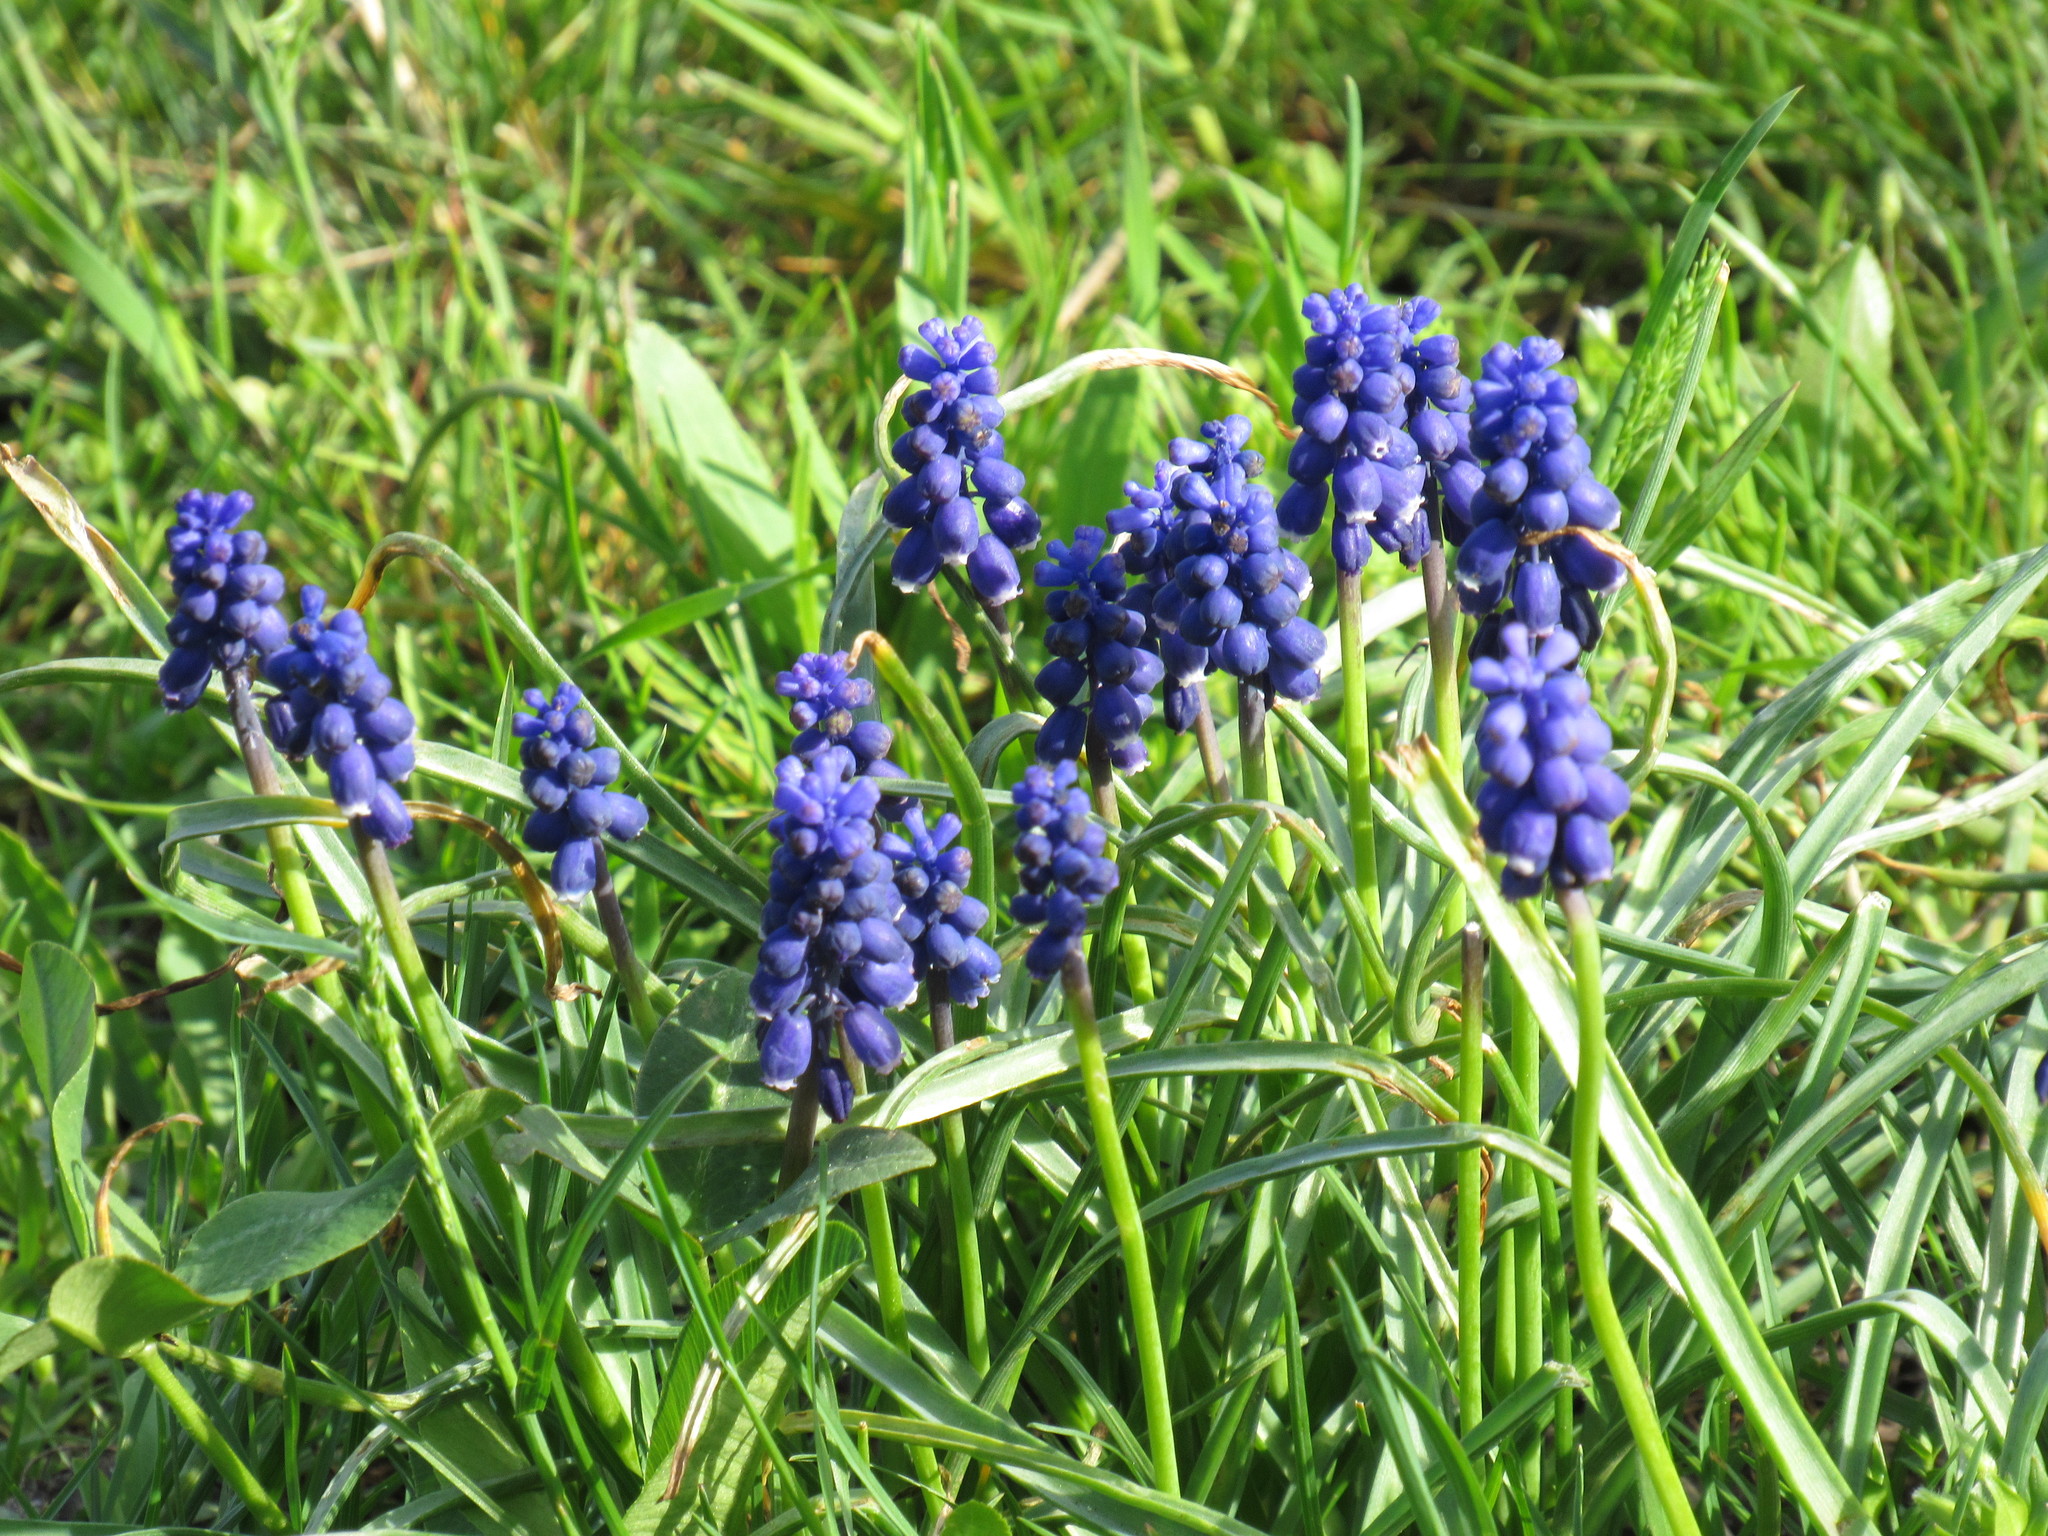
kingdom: Plantae
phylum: Tracheophyta
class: Liliopsida
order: Asparagales
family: Asparagaceae
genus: Muscari
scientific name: Muscari neglectum
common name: Grape-hyacinth
